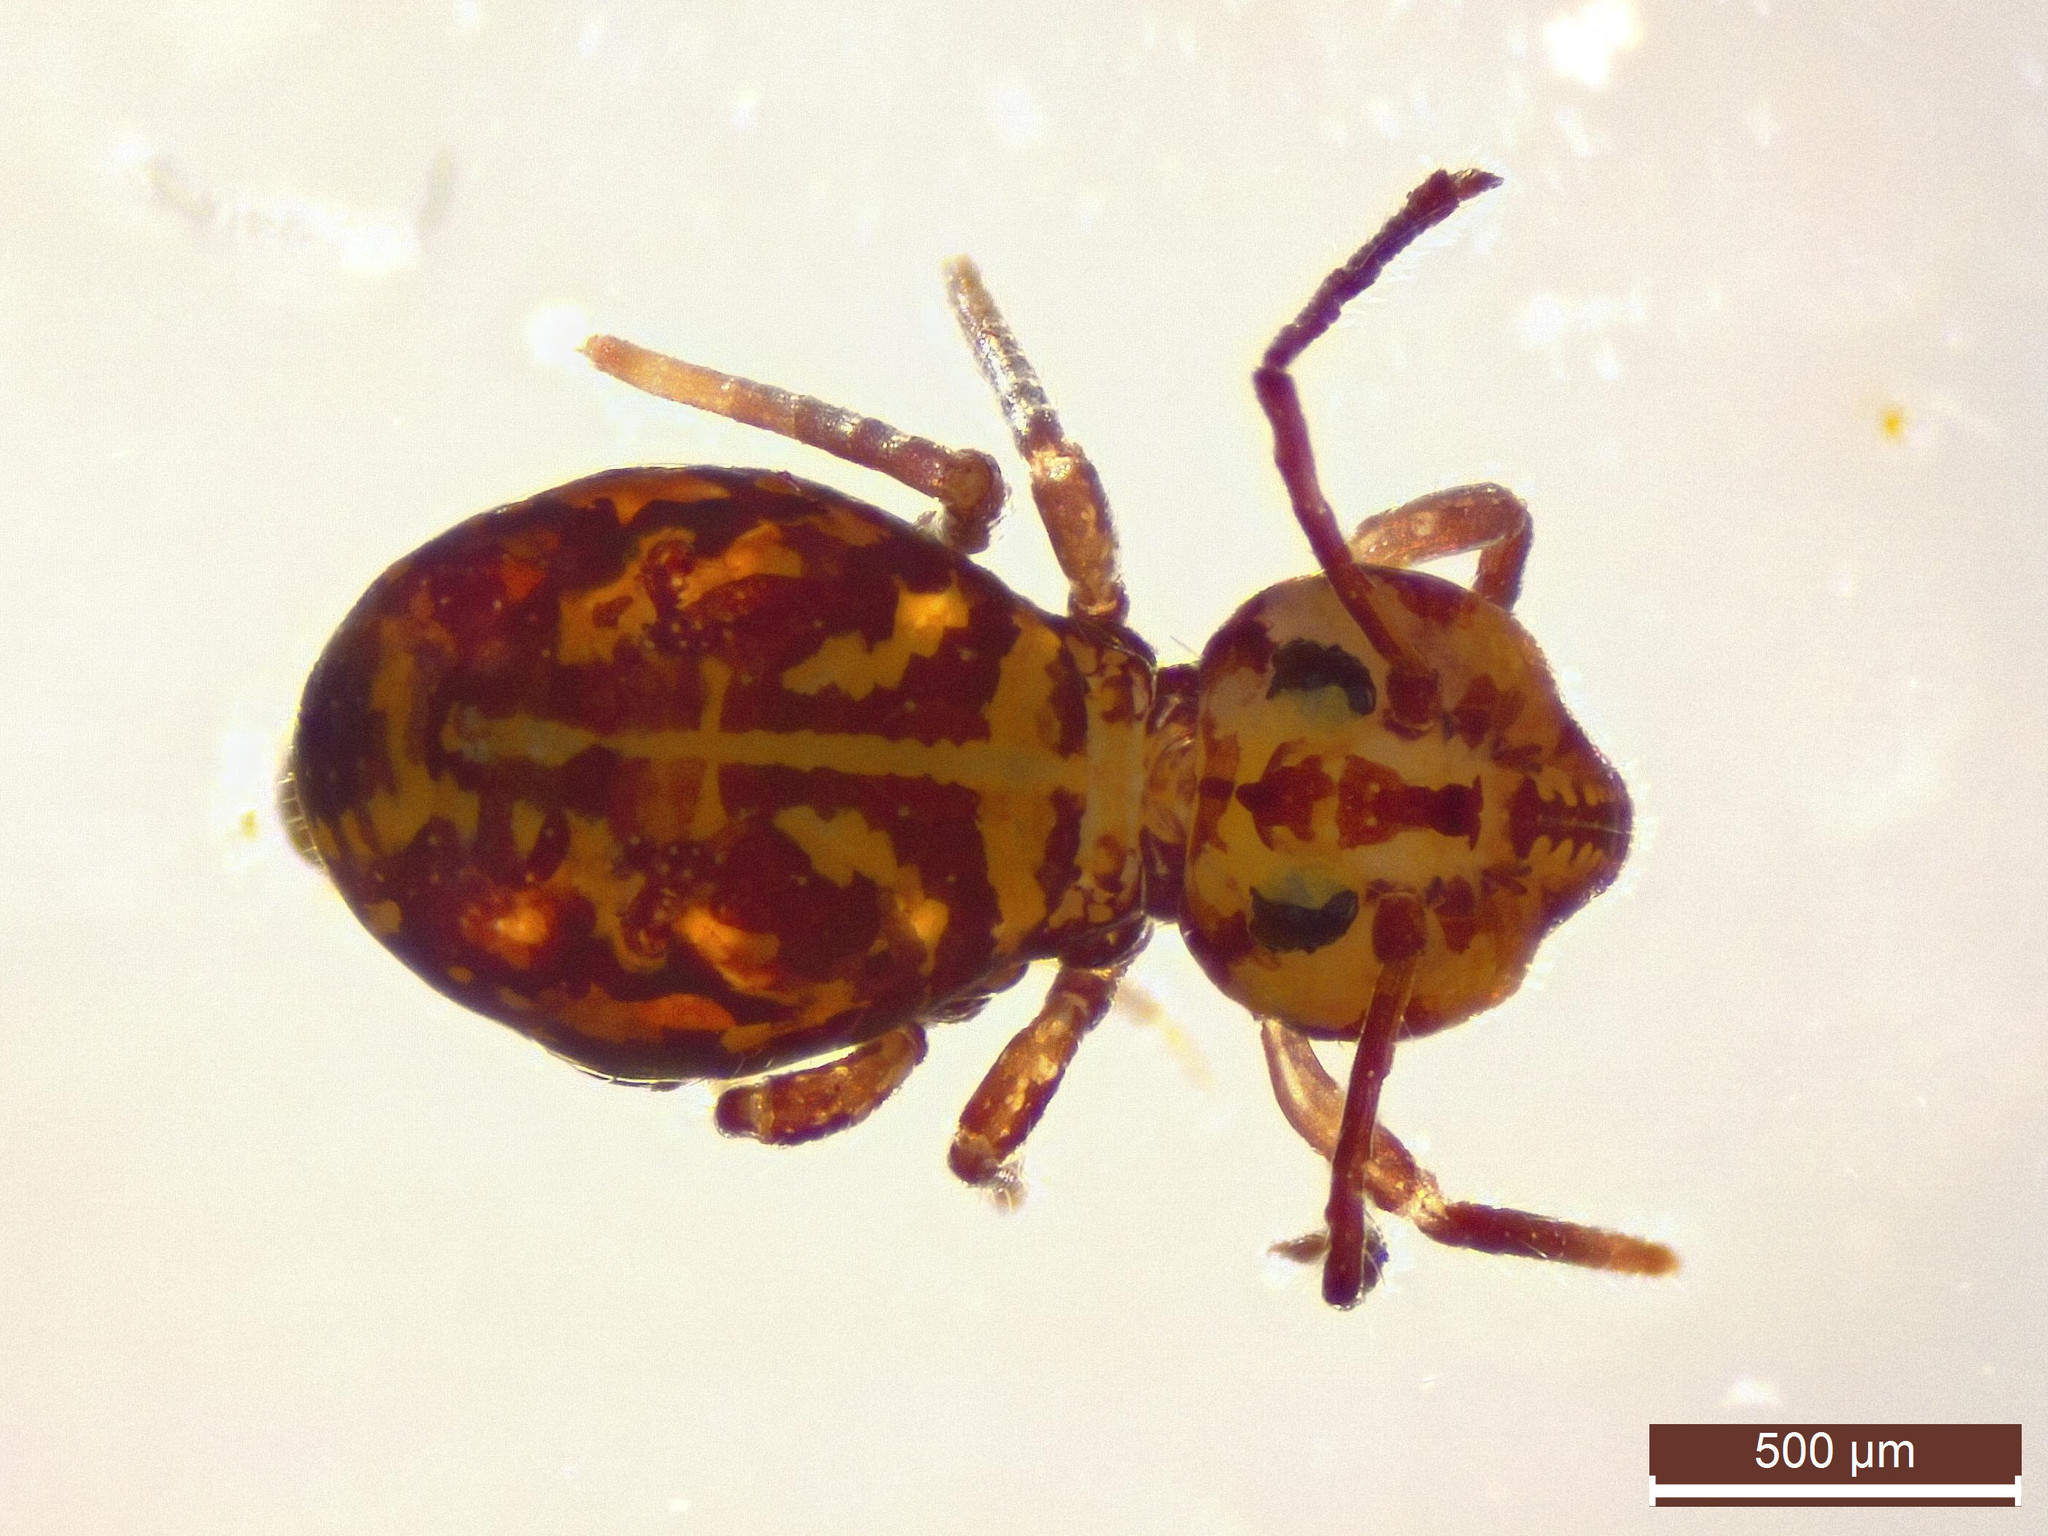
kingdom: Animalia
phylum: Arthropoda
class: Collembola
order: Symphypleona
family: Dicyrtomidae
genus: Dicyrtomina
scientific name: Dicyrtomina ornata
